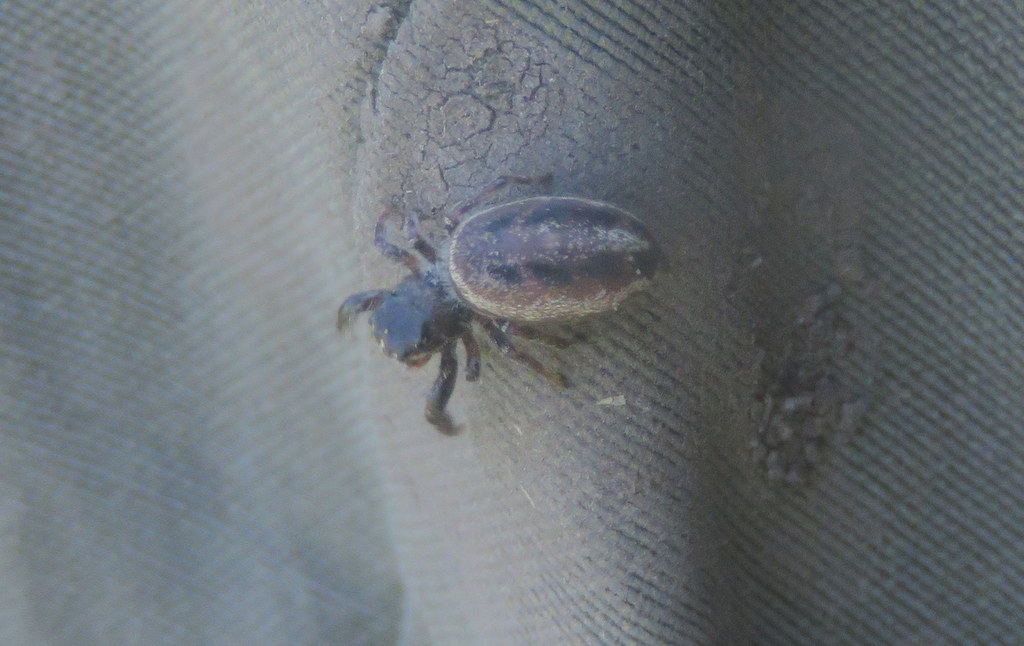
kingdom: Animalia
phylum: Arthropoda
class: Arachnida
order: Araneae
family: Salticidae
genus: Dendryphantes
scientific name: Dendryphantes mordax
